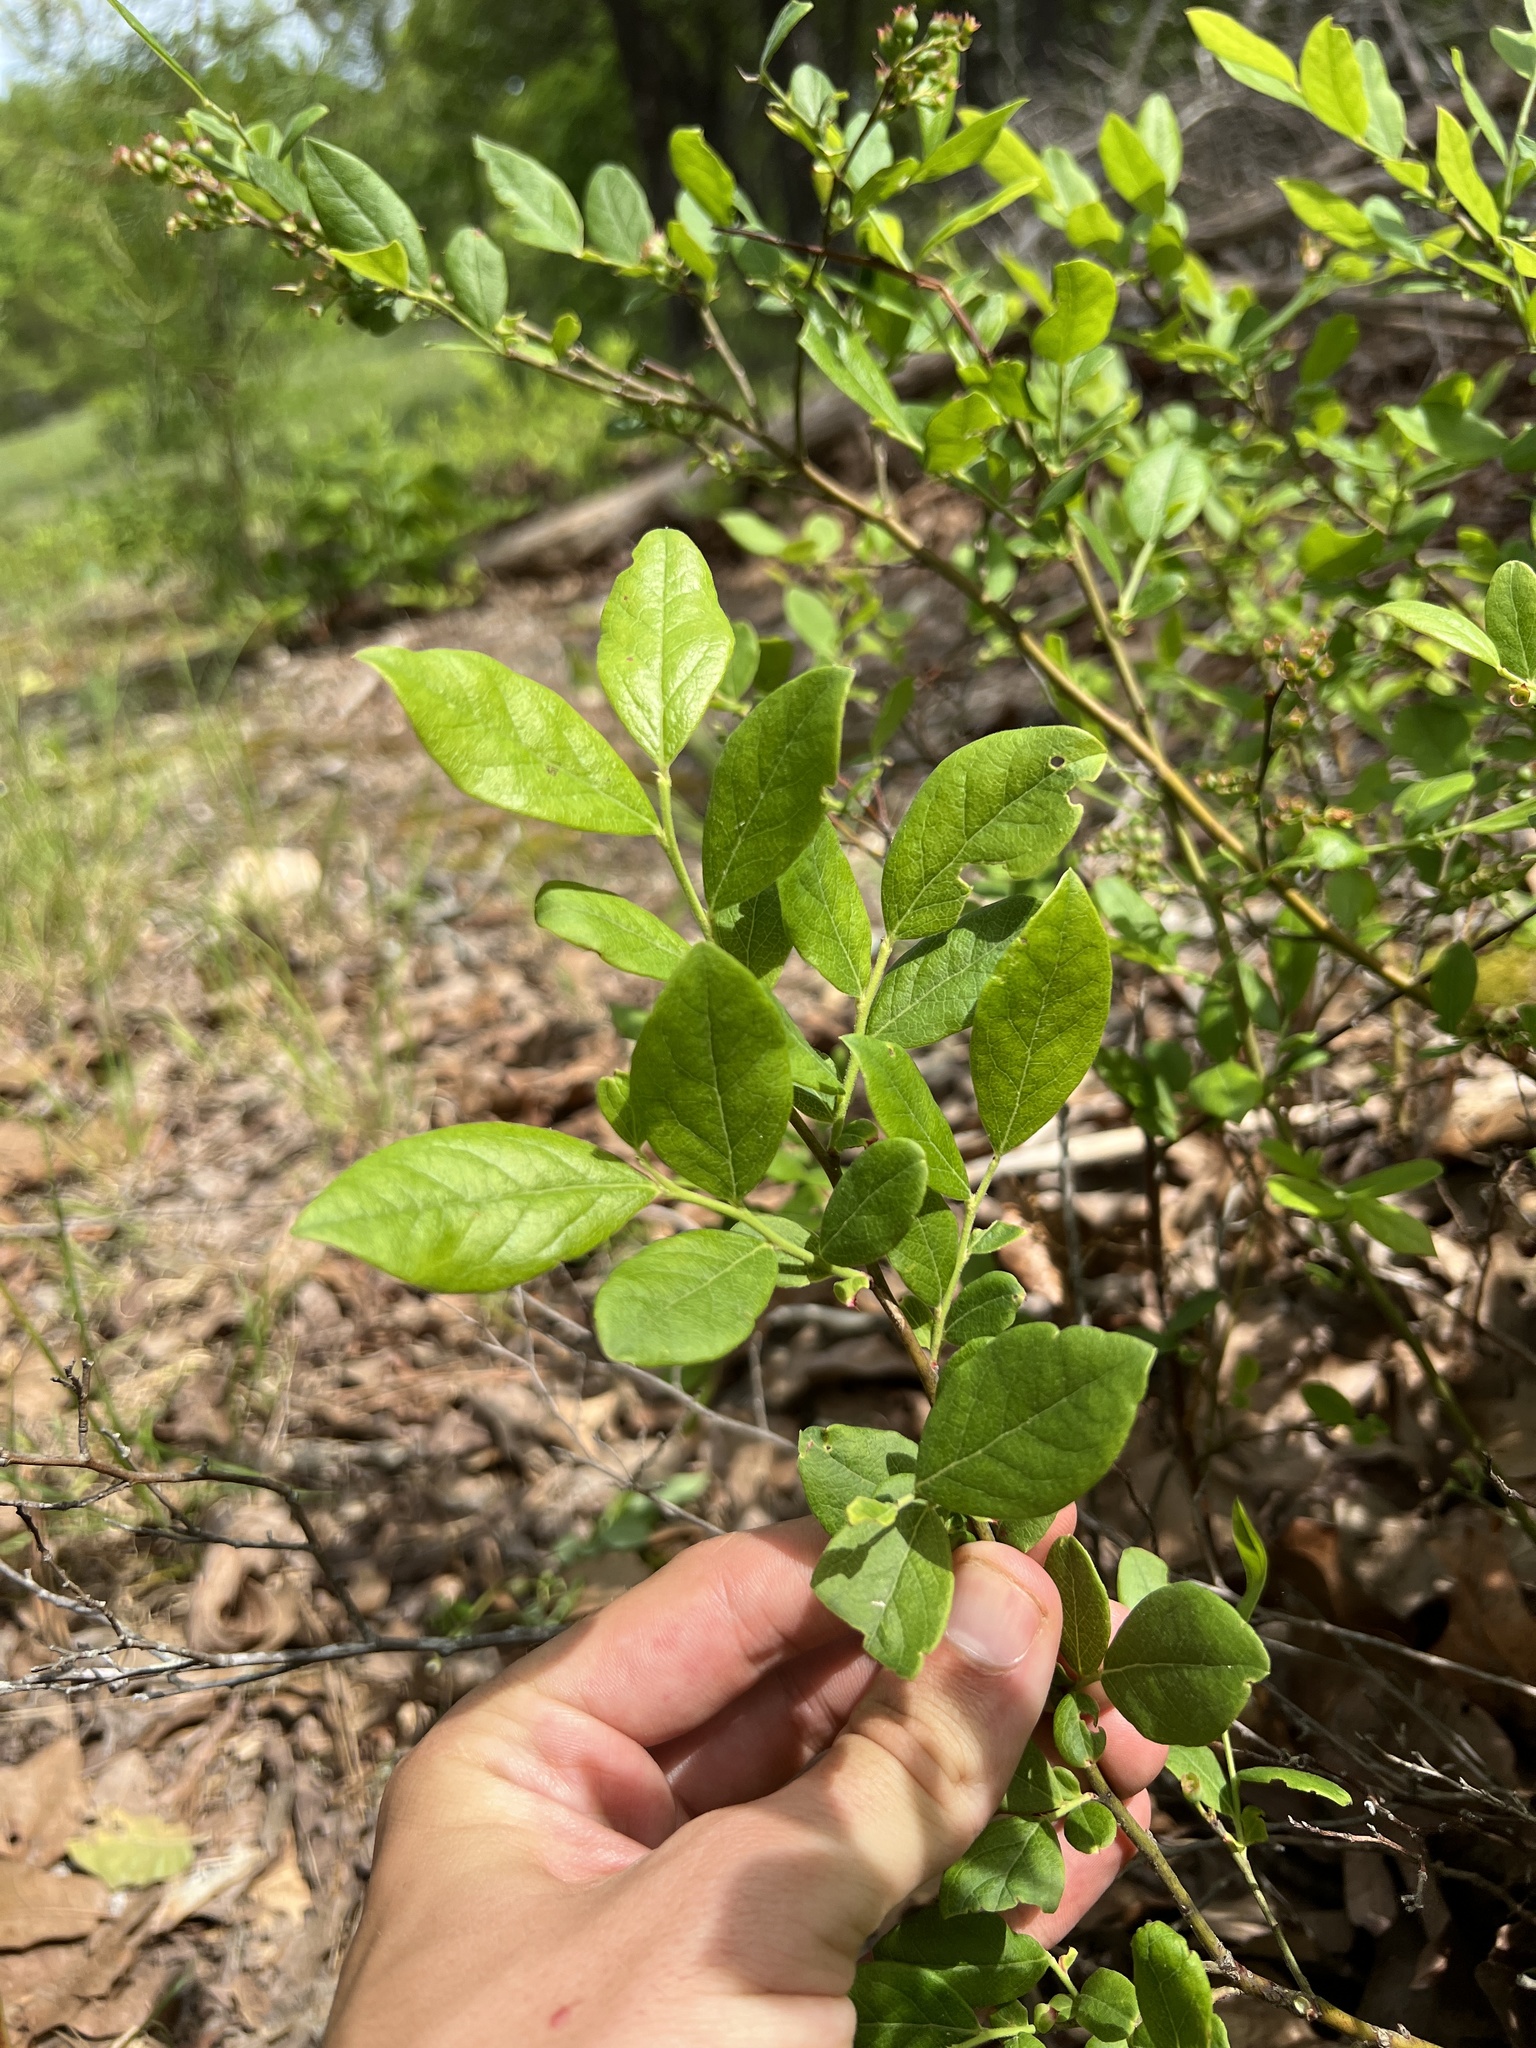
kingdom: Plantae
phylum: Tracheophyta
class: Magnoliopsida
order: Ericales
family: Ericaceae
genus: Vaccinium
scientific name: Vaccinium pallidum
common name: Blue ridge blueberry
